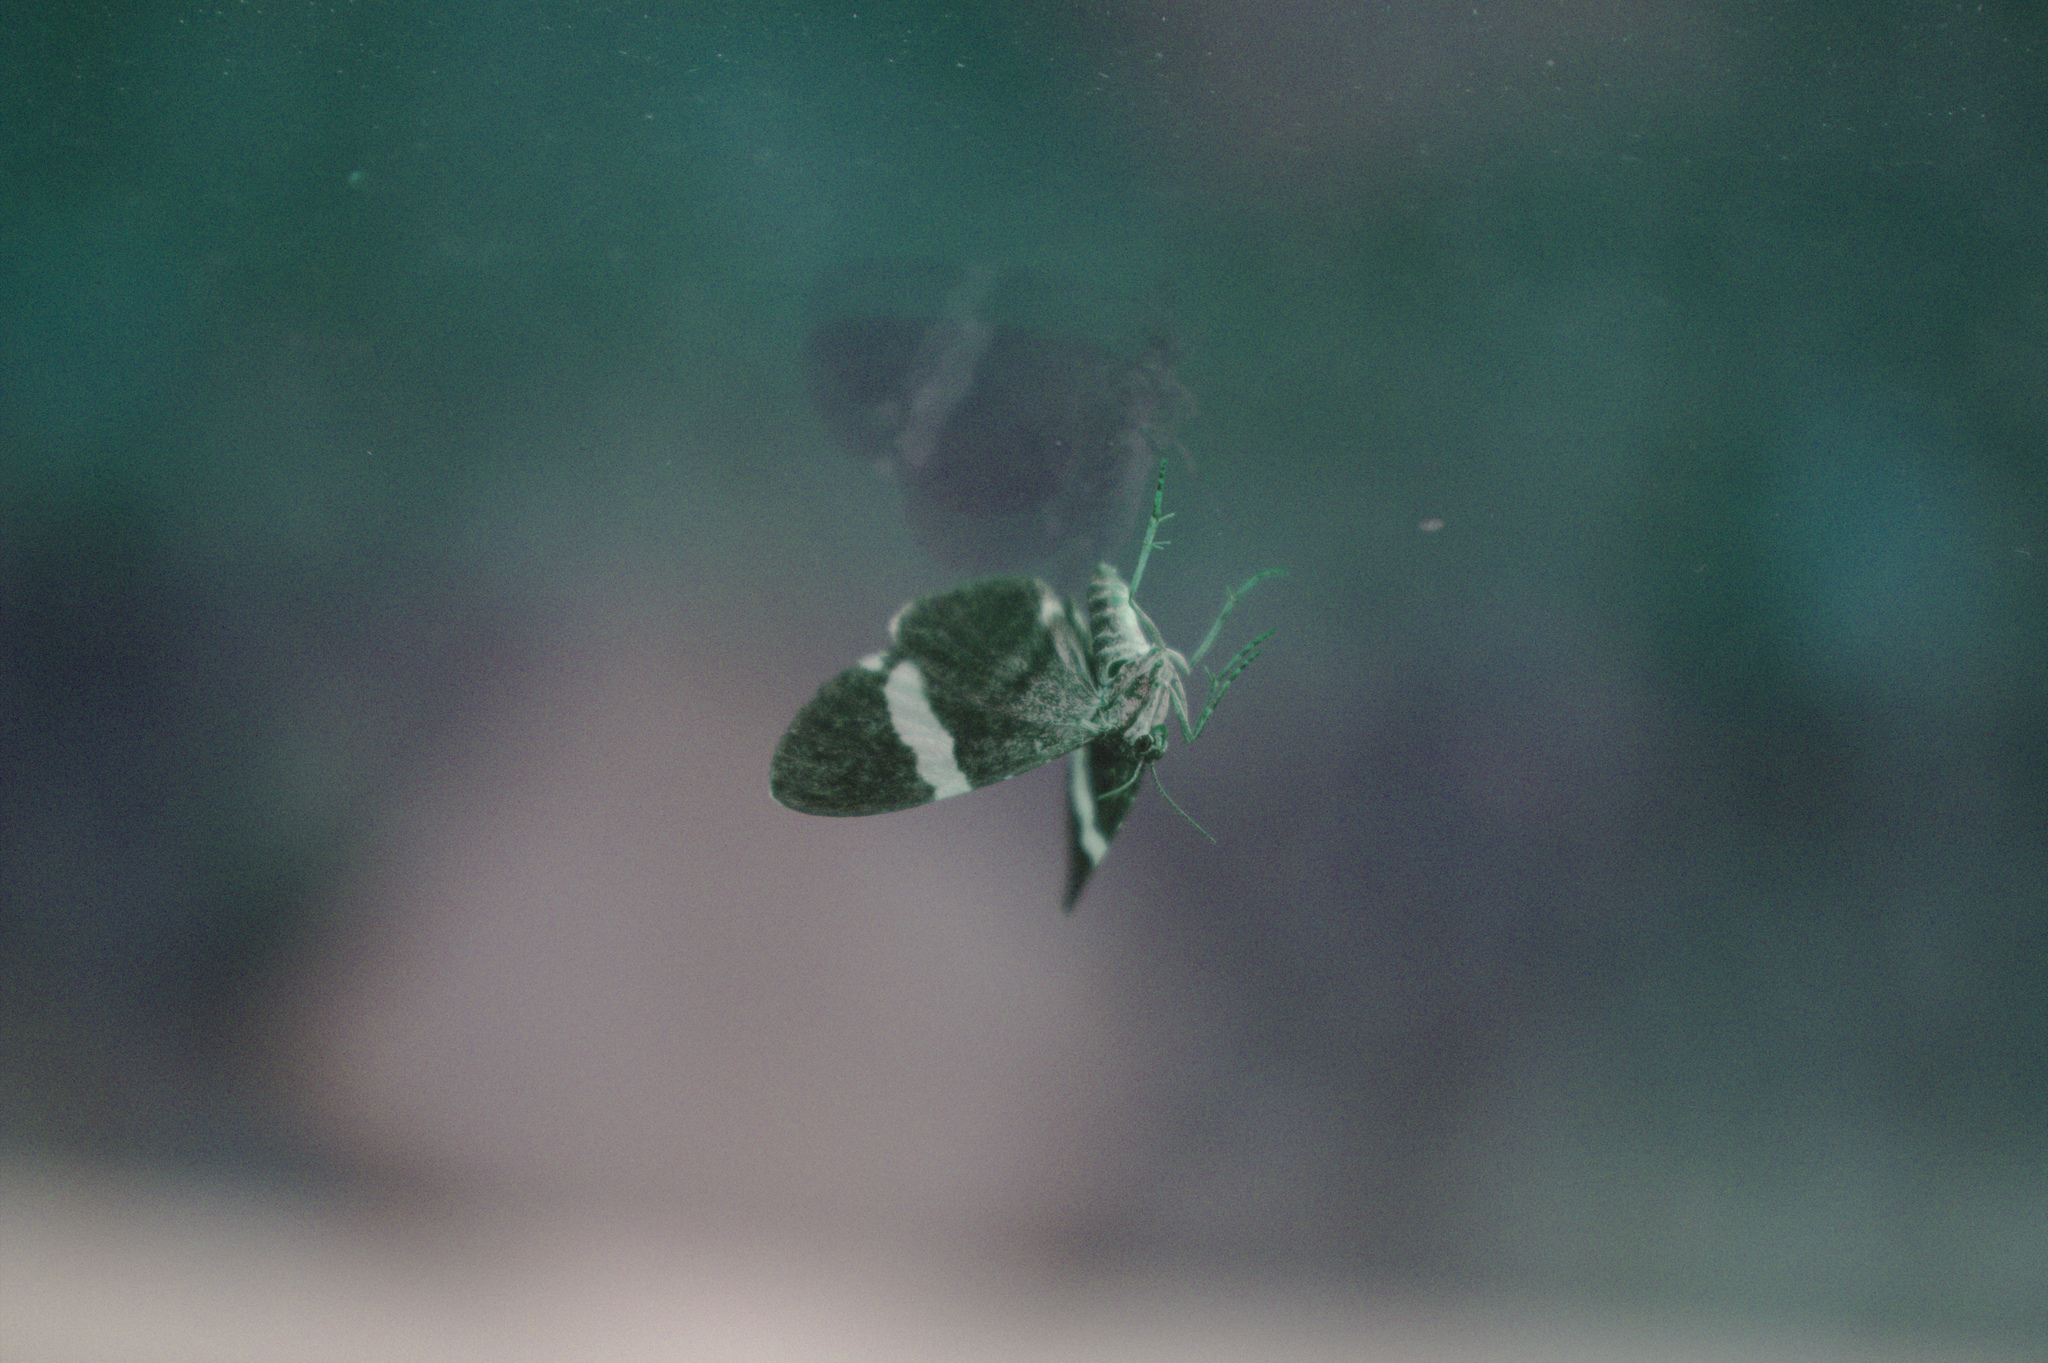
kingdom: Animalia
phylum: Arthropoda
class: Insecta
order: Lepidoptera
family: Geometridae
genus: Trichodezia
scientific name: Trichodezia albovittata
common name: White striped black
